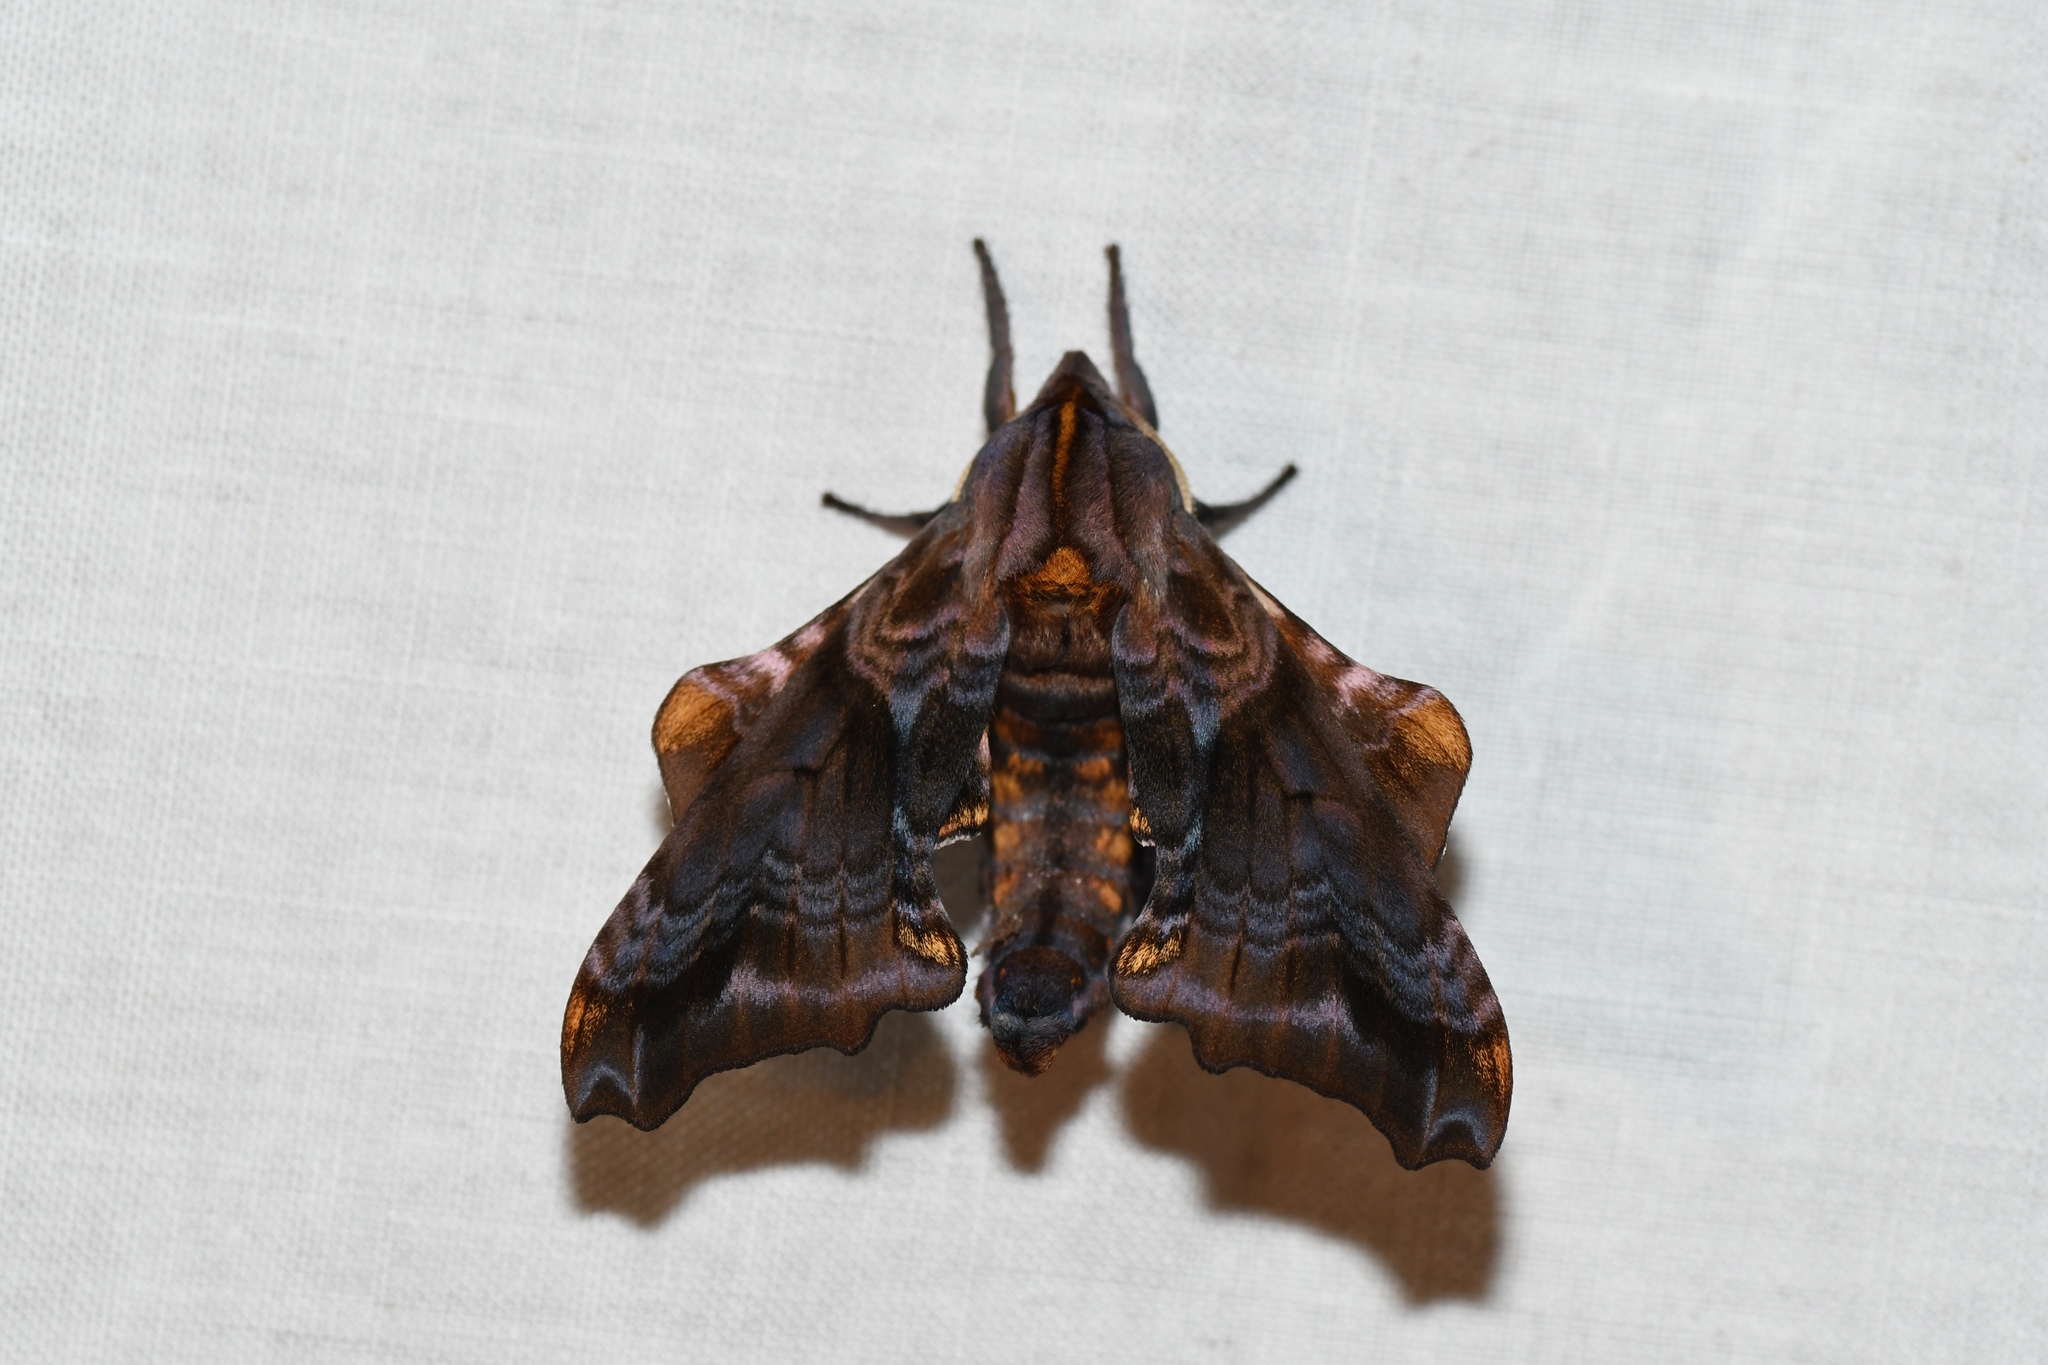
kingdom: Animalia
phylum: Arthropoda
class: Insecta
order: Lepidoptera
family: Sphingidae
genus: Paonias
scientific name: Paonias myops
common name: Small-eyed sphinx
